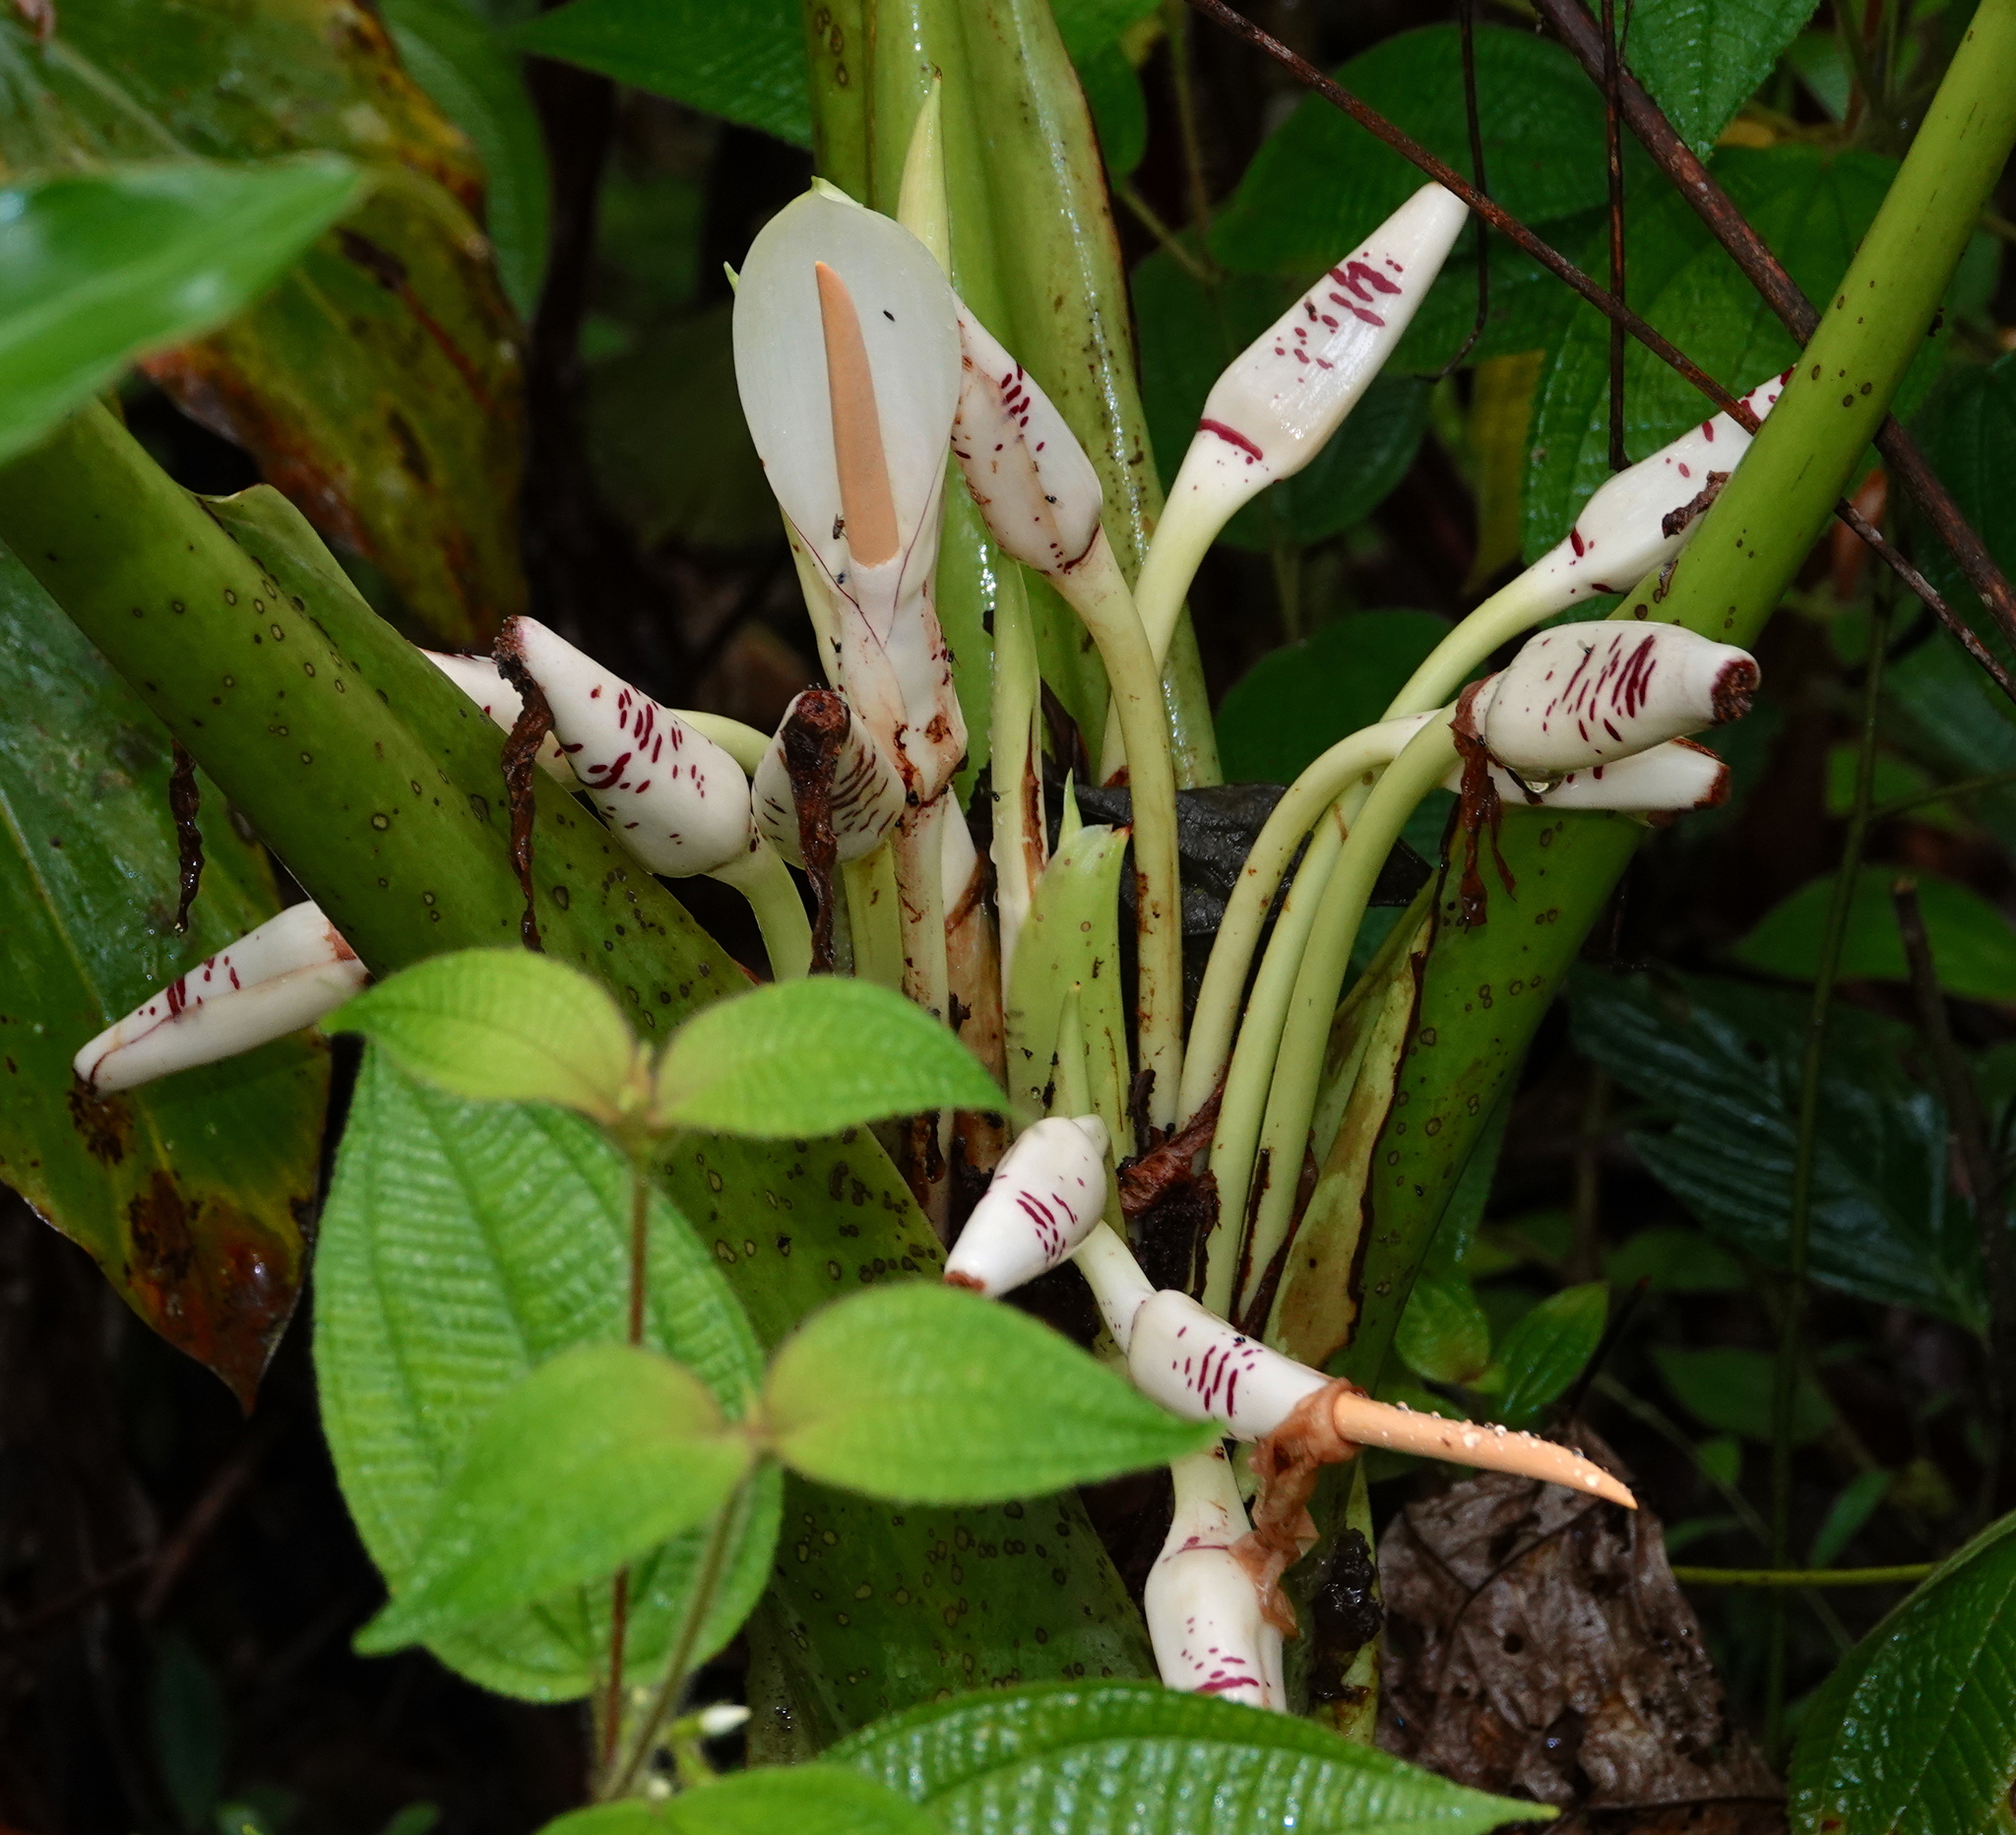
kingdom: Plantae
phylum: Tracheophyta
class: Liliopsida
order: Alismatales
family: Araceae
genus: Alocasia
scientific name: Alocasia sarawakensis
